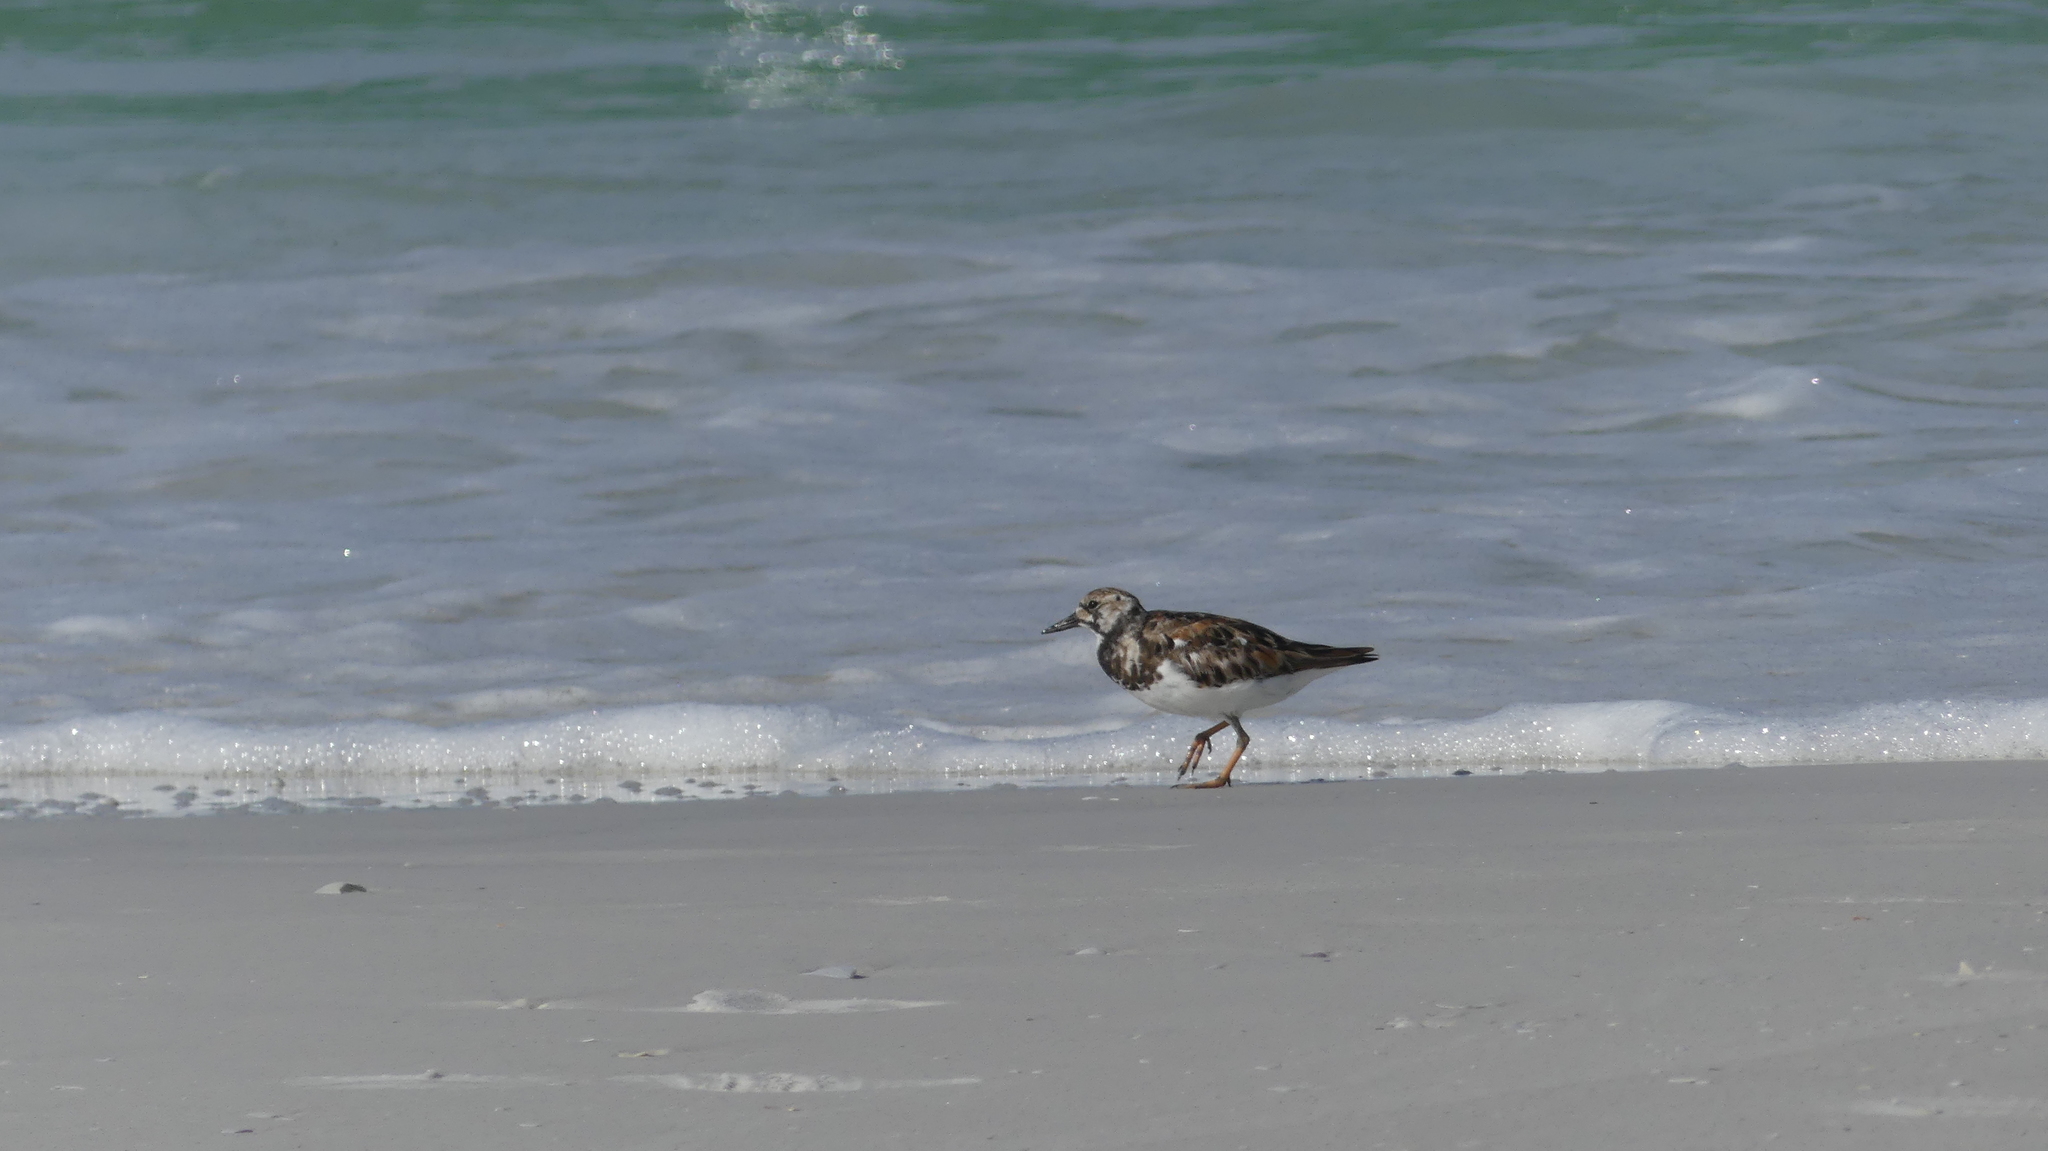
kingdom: Animalia
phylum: Chordata
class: Aves
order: Charadriiformes
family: Scolopacidae
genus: Arenaria
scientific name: Arenaria interpres
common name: Ruddy turnstone
